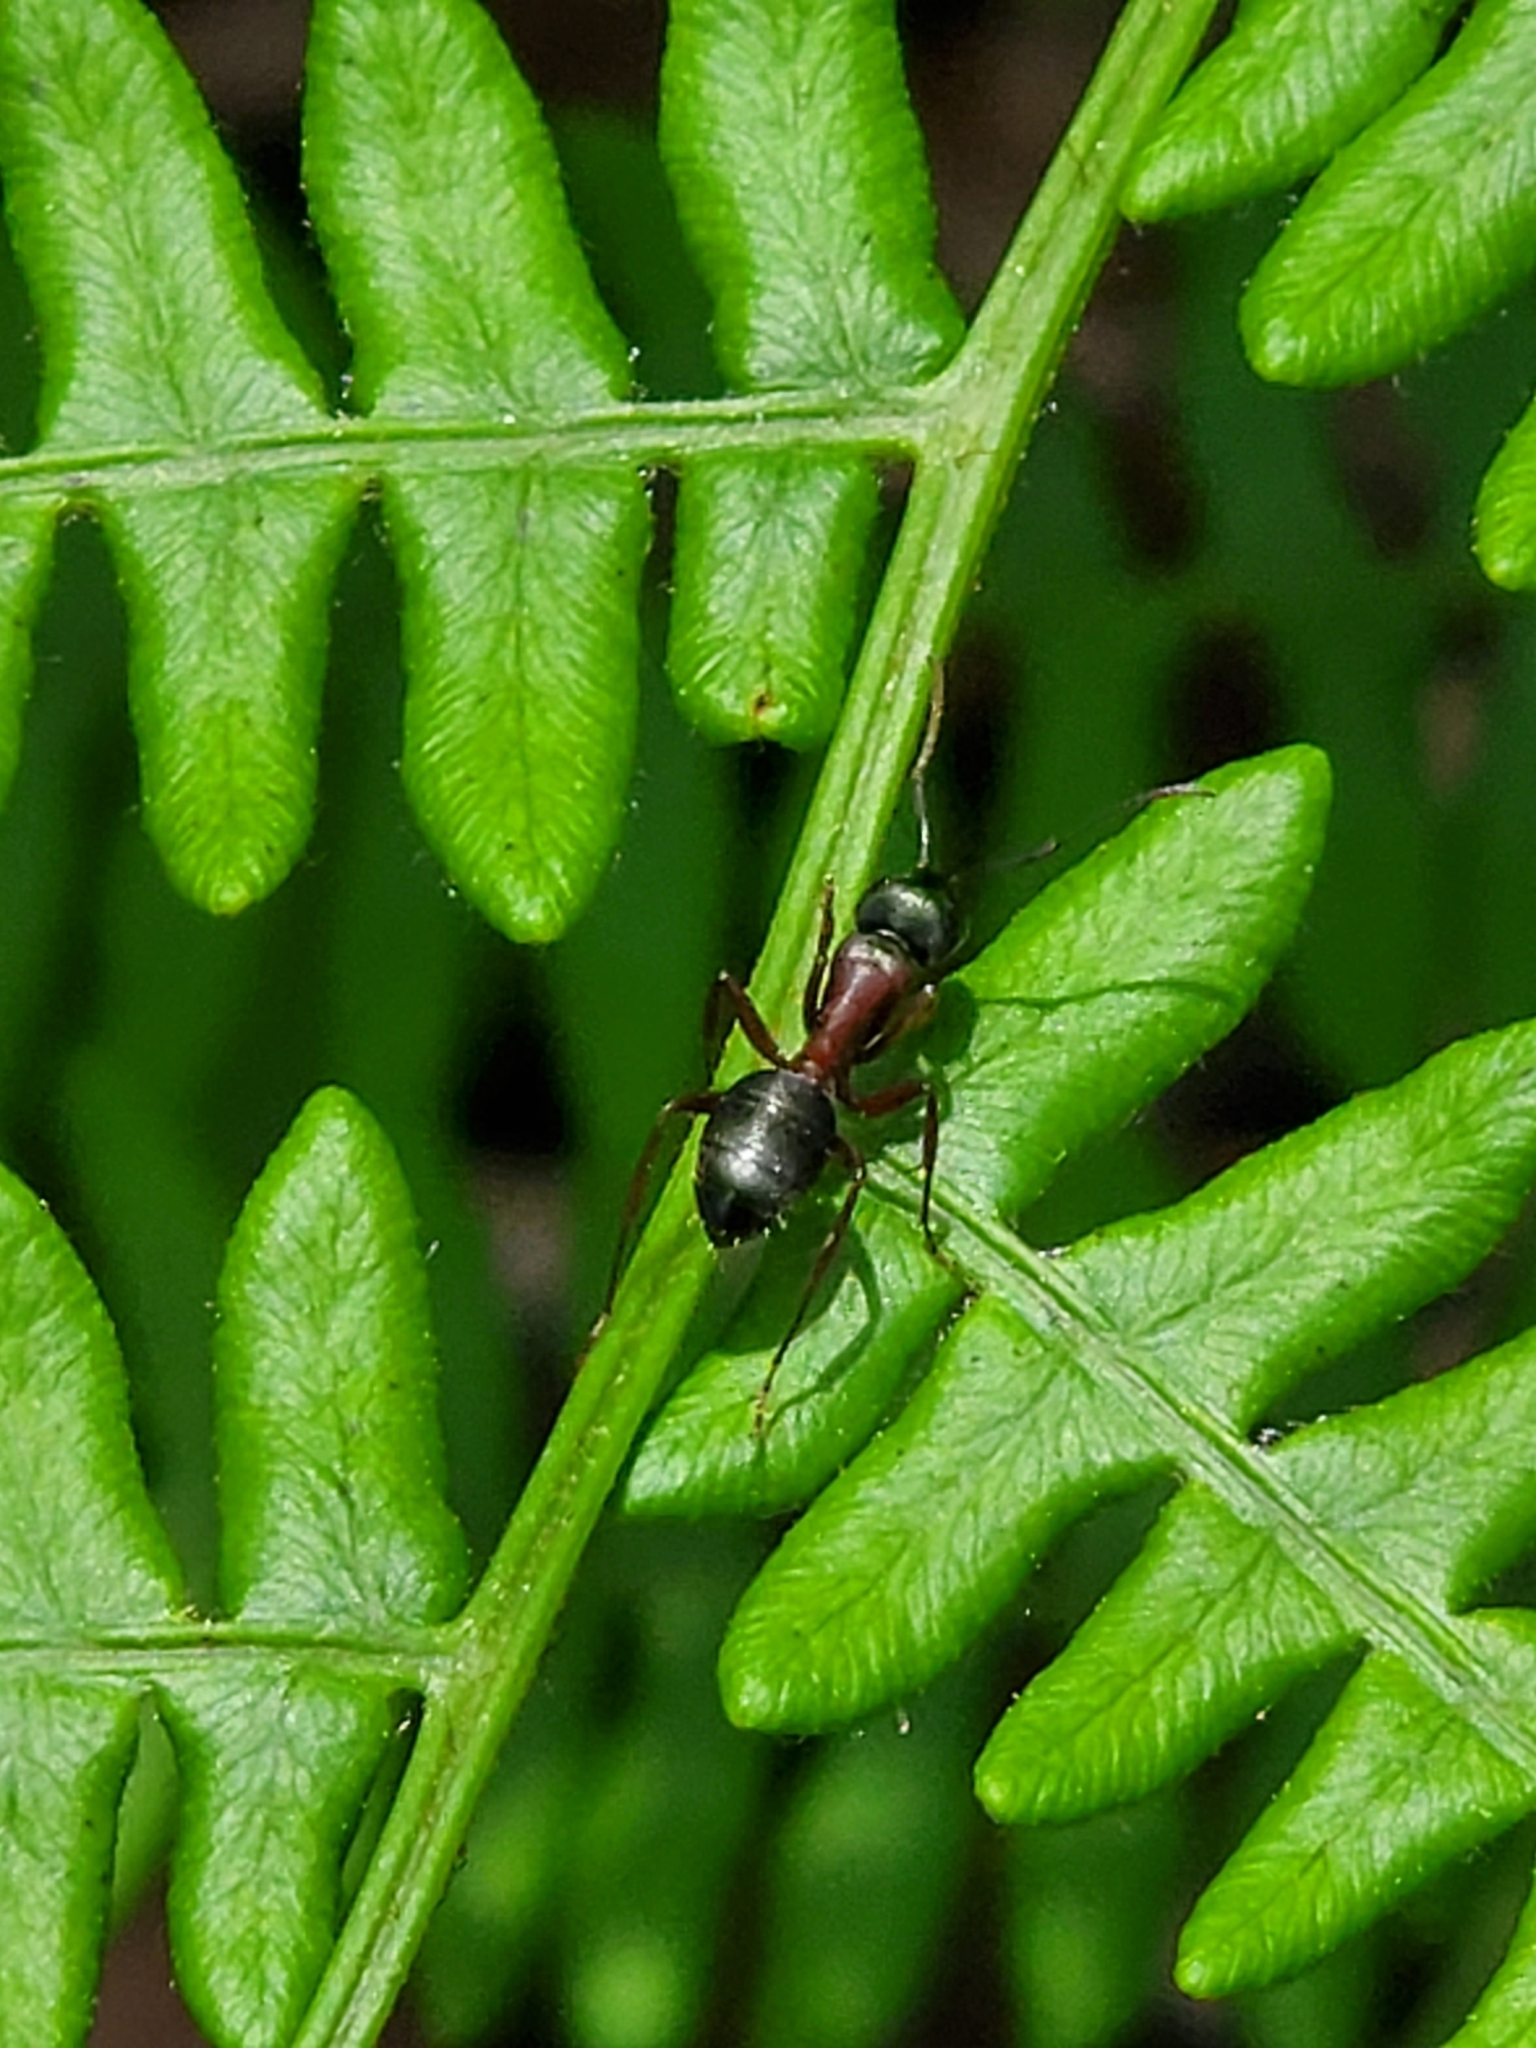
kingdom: Animalia
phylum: Arthropoda
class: Insecta
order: Hymenoptera
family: Formicidae
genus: Camponotus
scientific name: Camponotus vicinus
